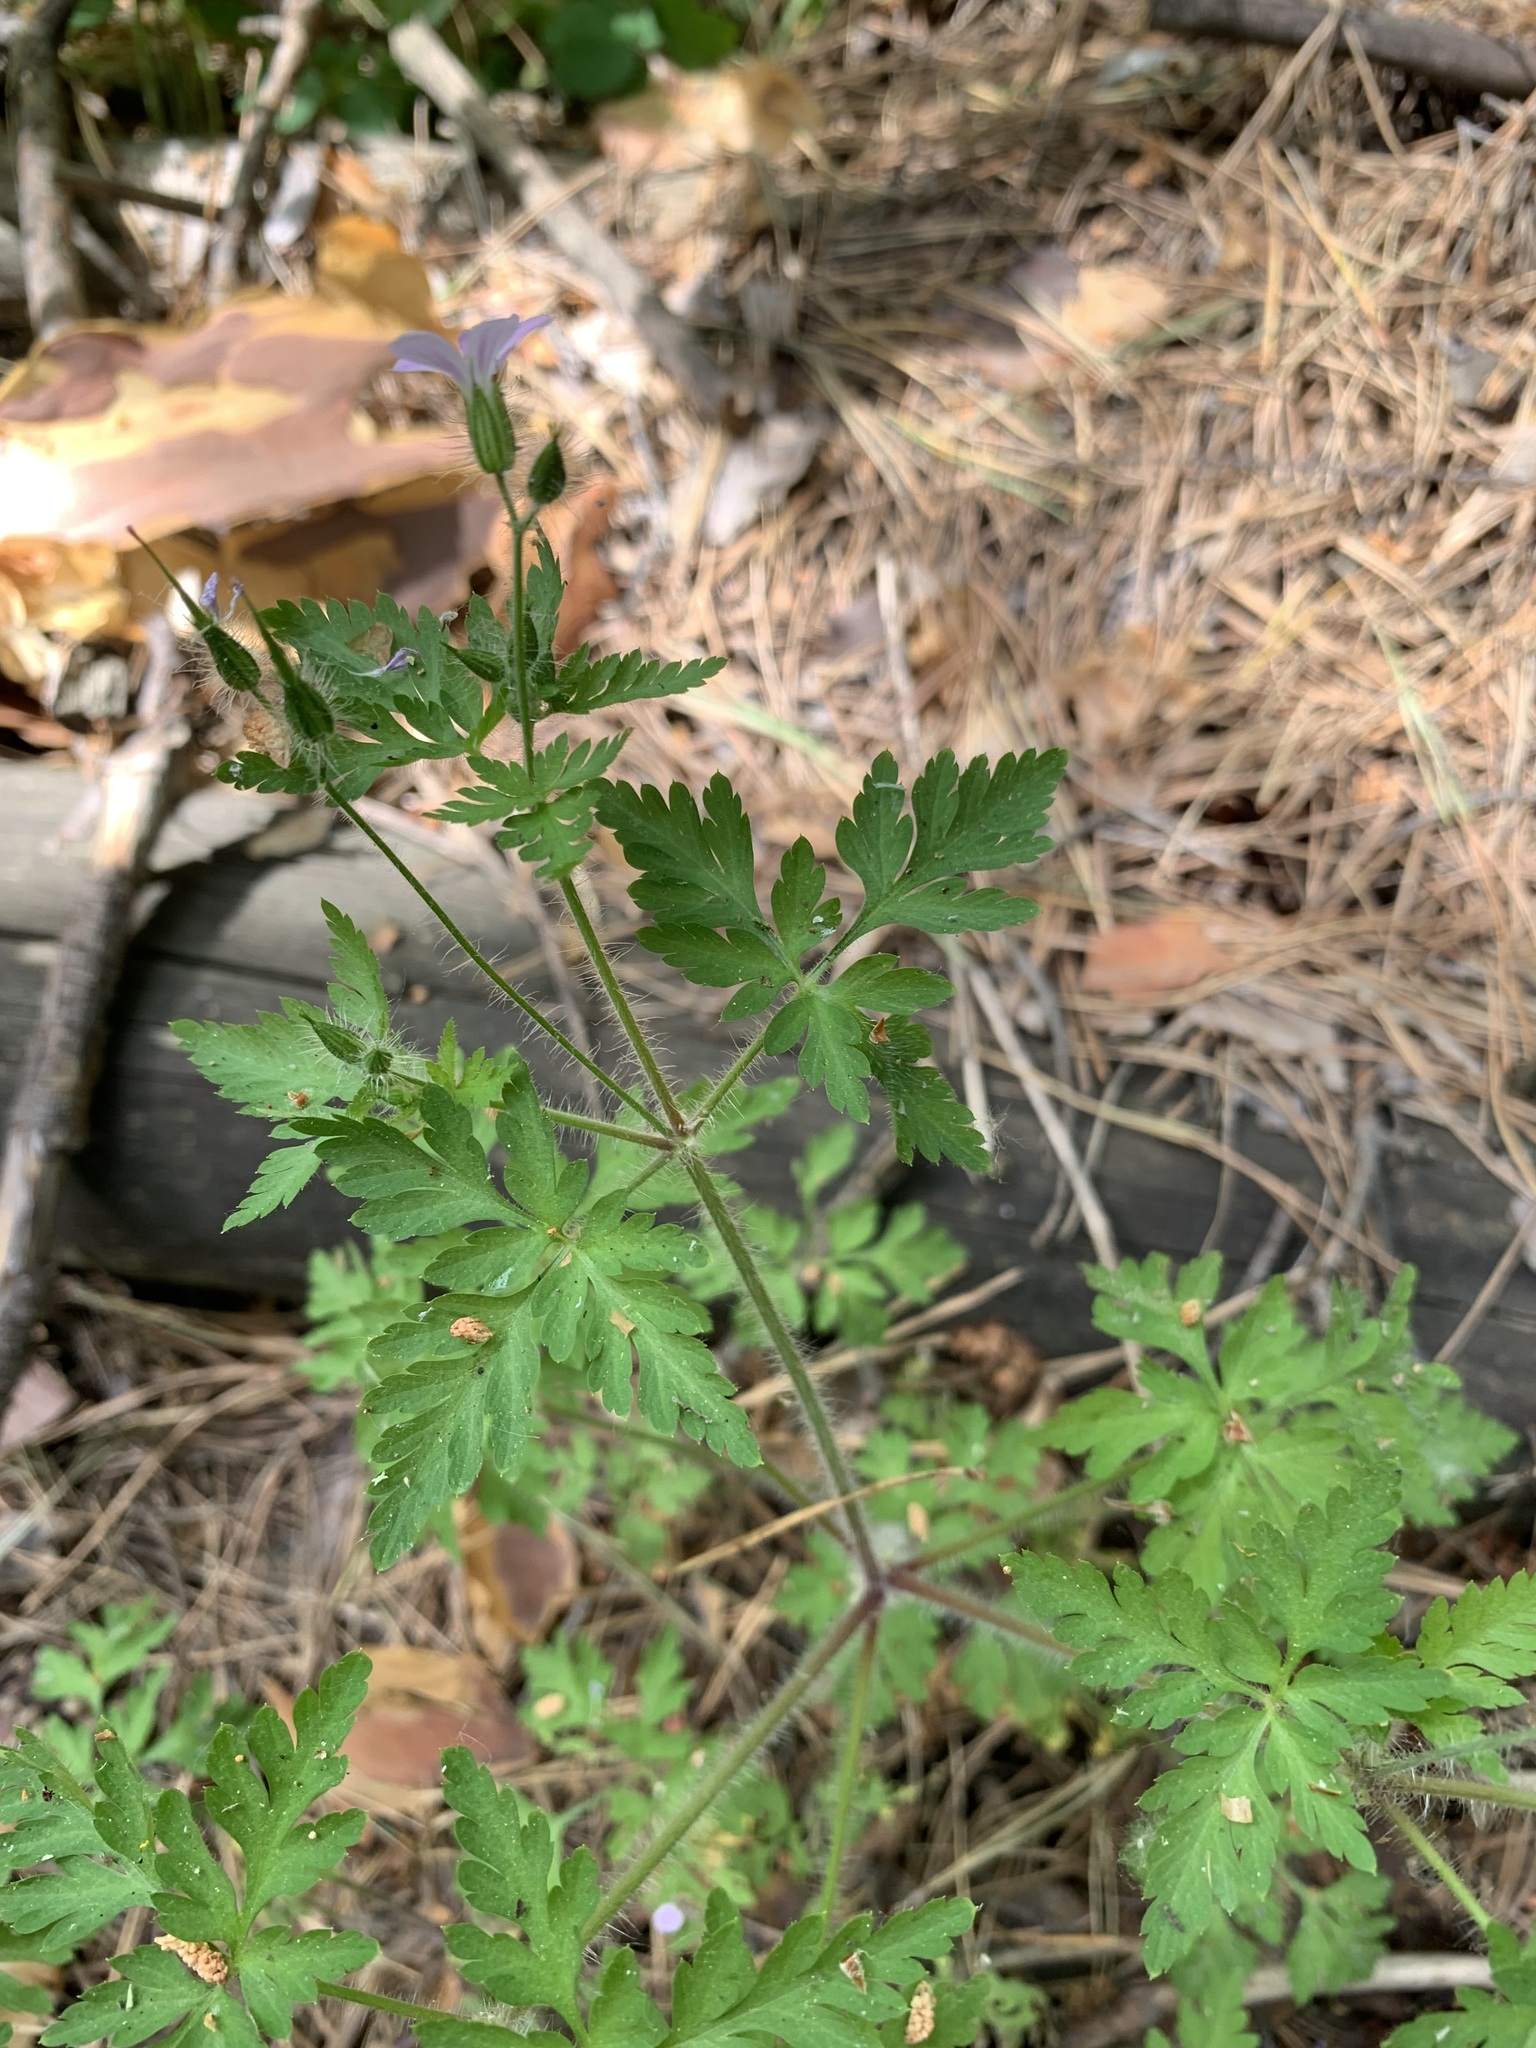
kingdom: Plantae
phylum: Tracheophyta
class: Magnoliopsida
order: Geraniales
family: Geraniaceae
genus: Geranium
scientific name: Geranium robertianum
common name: Herb-robert
